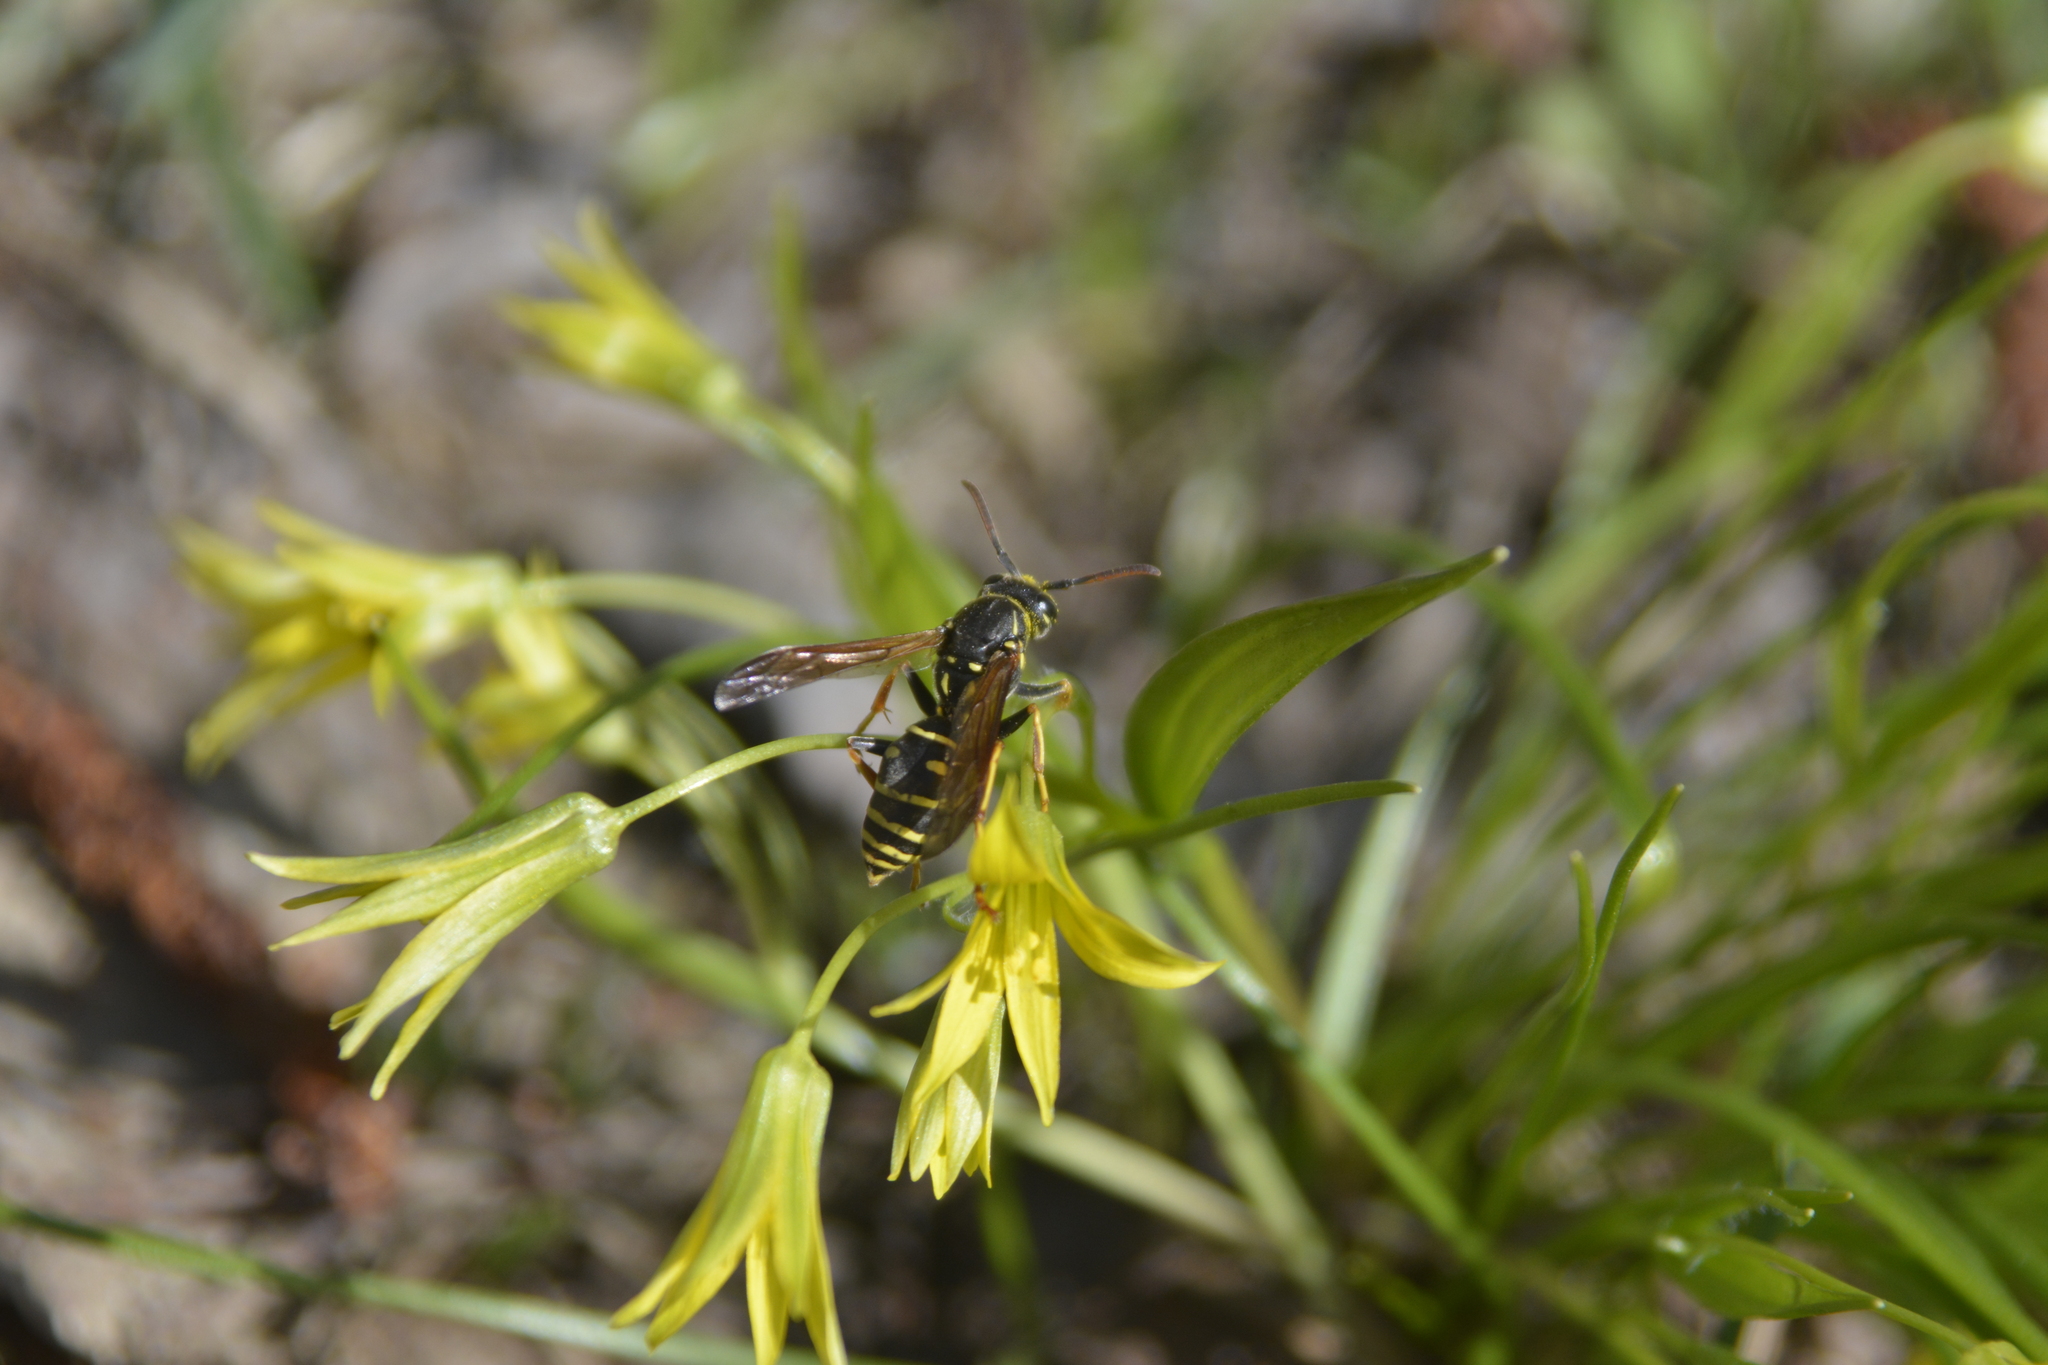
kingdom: Animalia
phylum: Arthropoda
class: Insecta
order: Hymenoptera
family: Eumenidae
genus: Polistes
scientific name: Polistes nimpha
